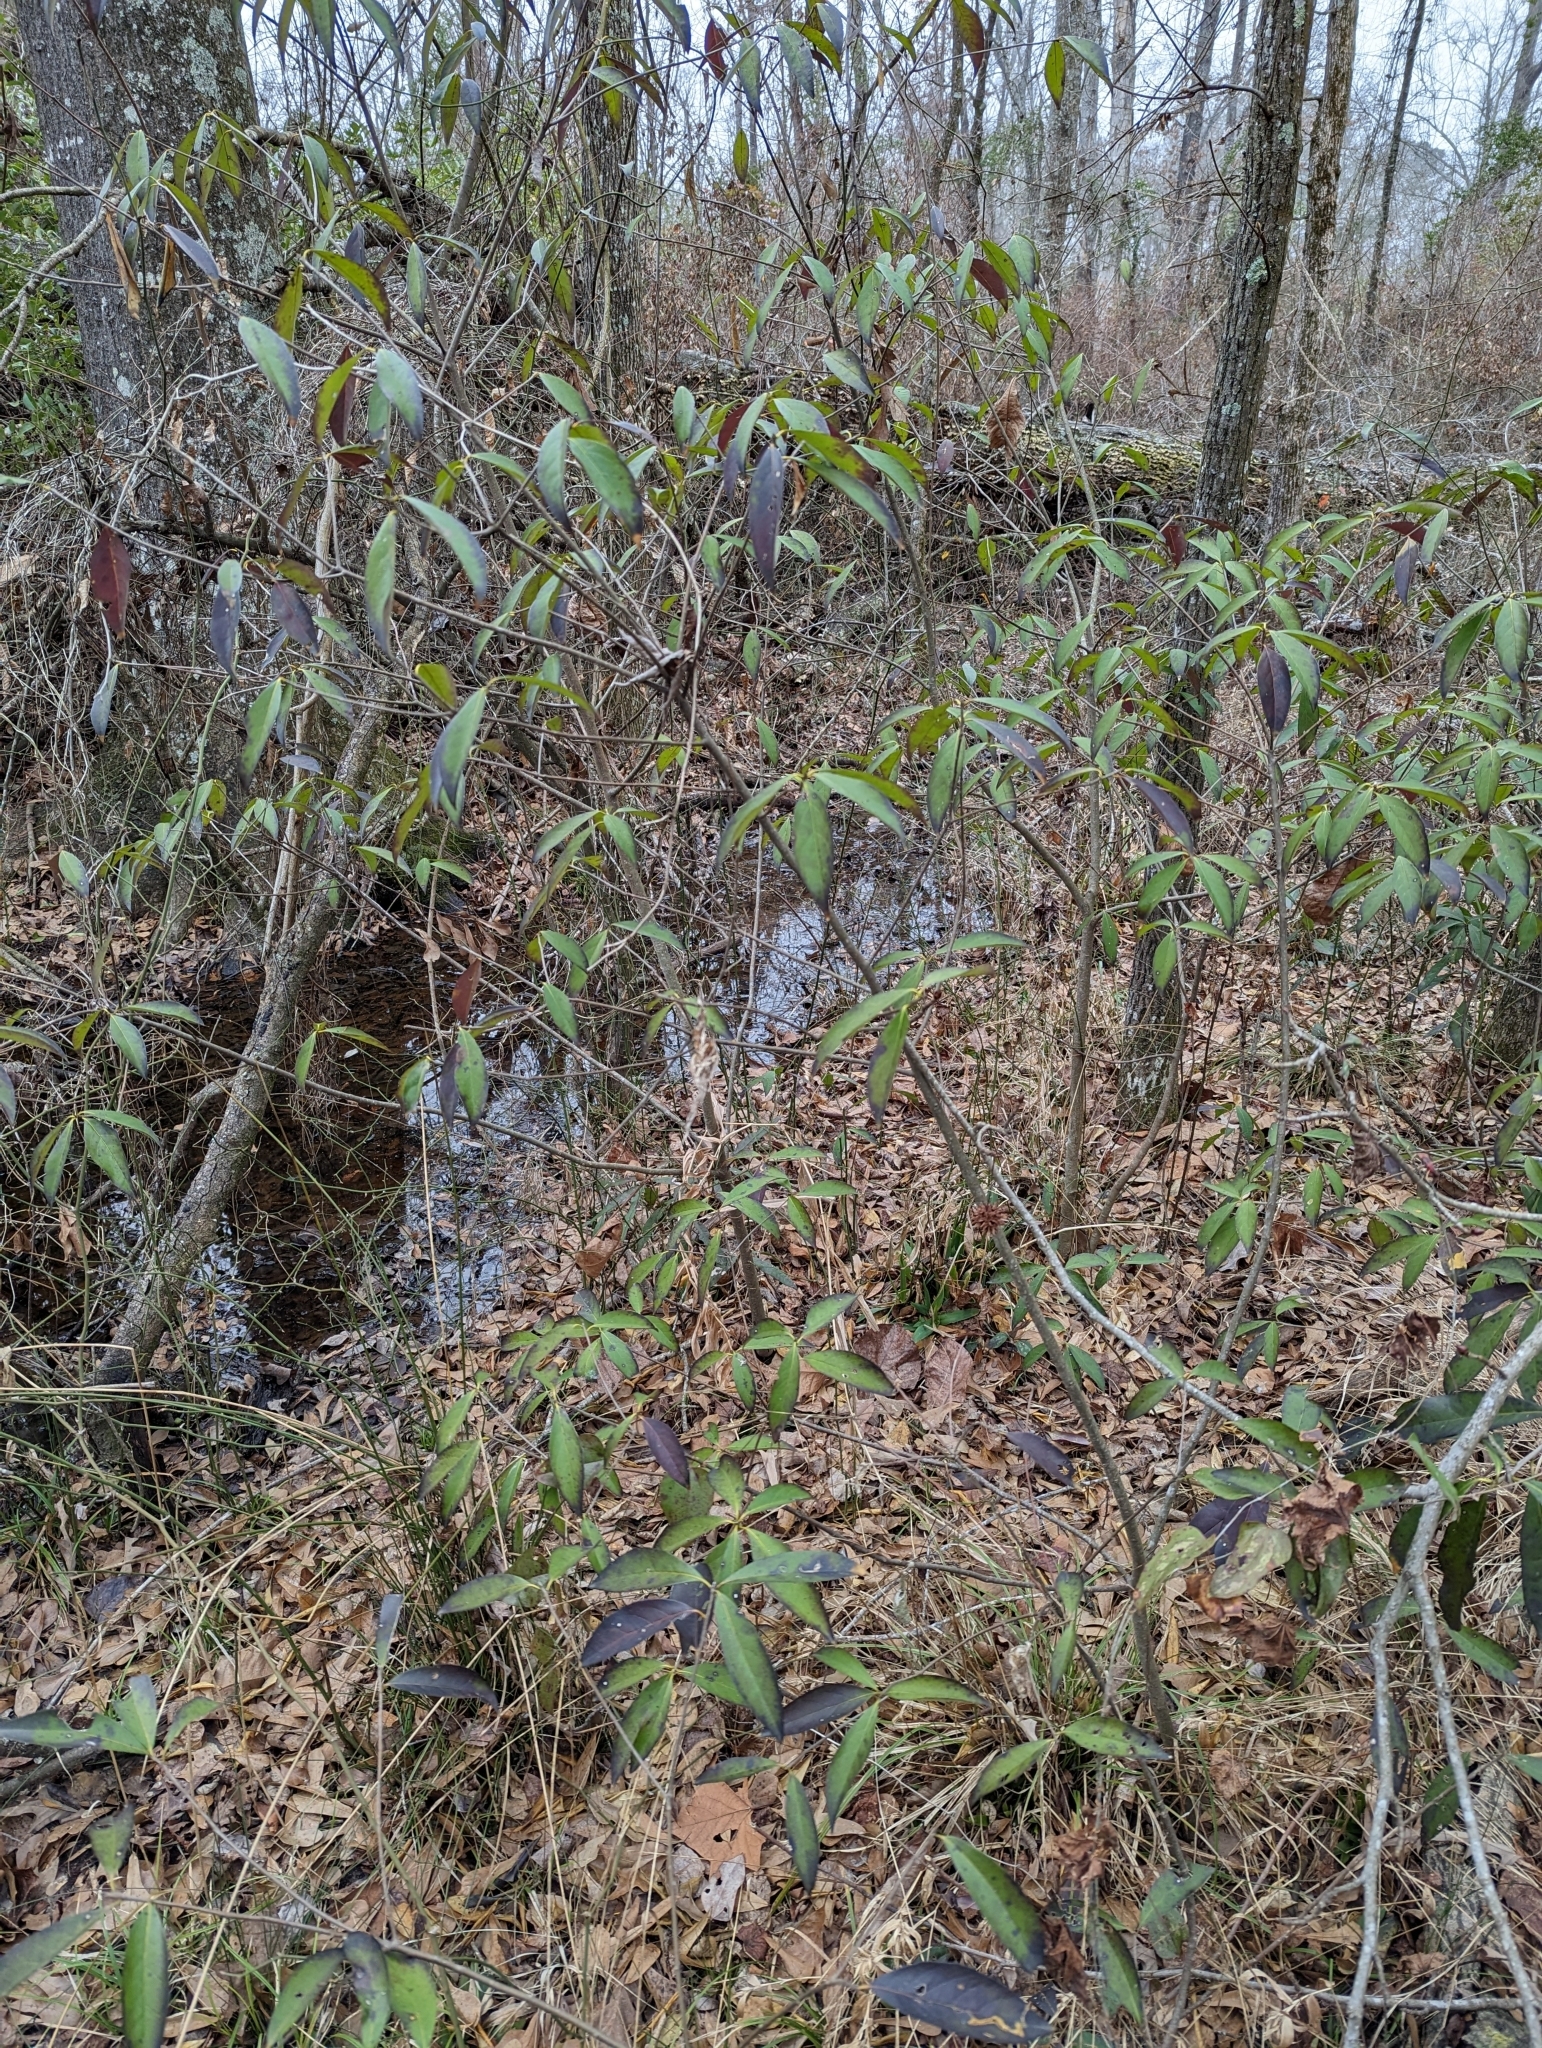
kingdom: Plantae
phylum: Tracheophyta
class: Magnoliopsida
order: Ericales
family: Symplocaceae
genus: Symplocos
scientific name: Symplocos tinctoria
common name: Horse-sugar
